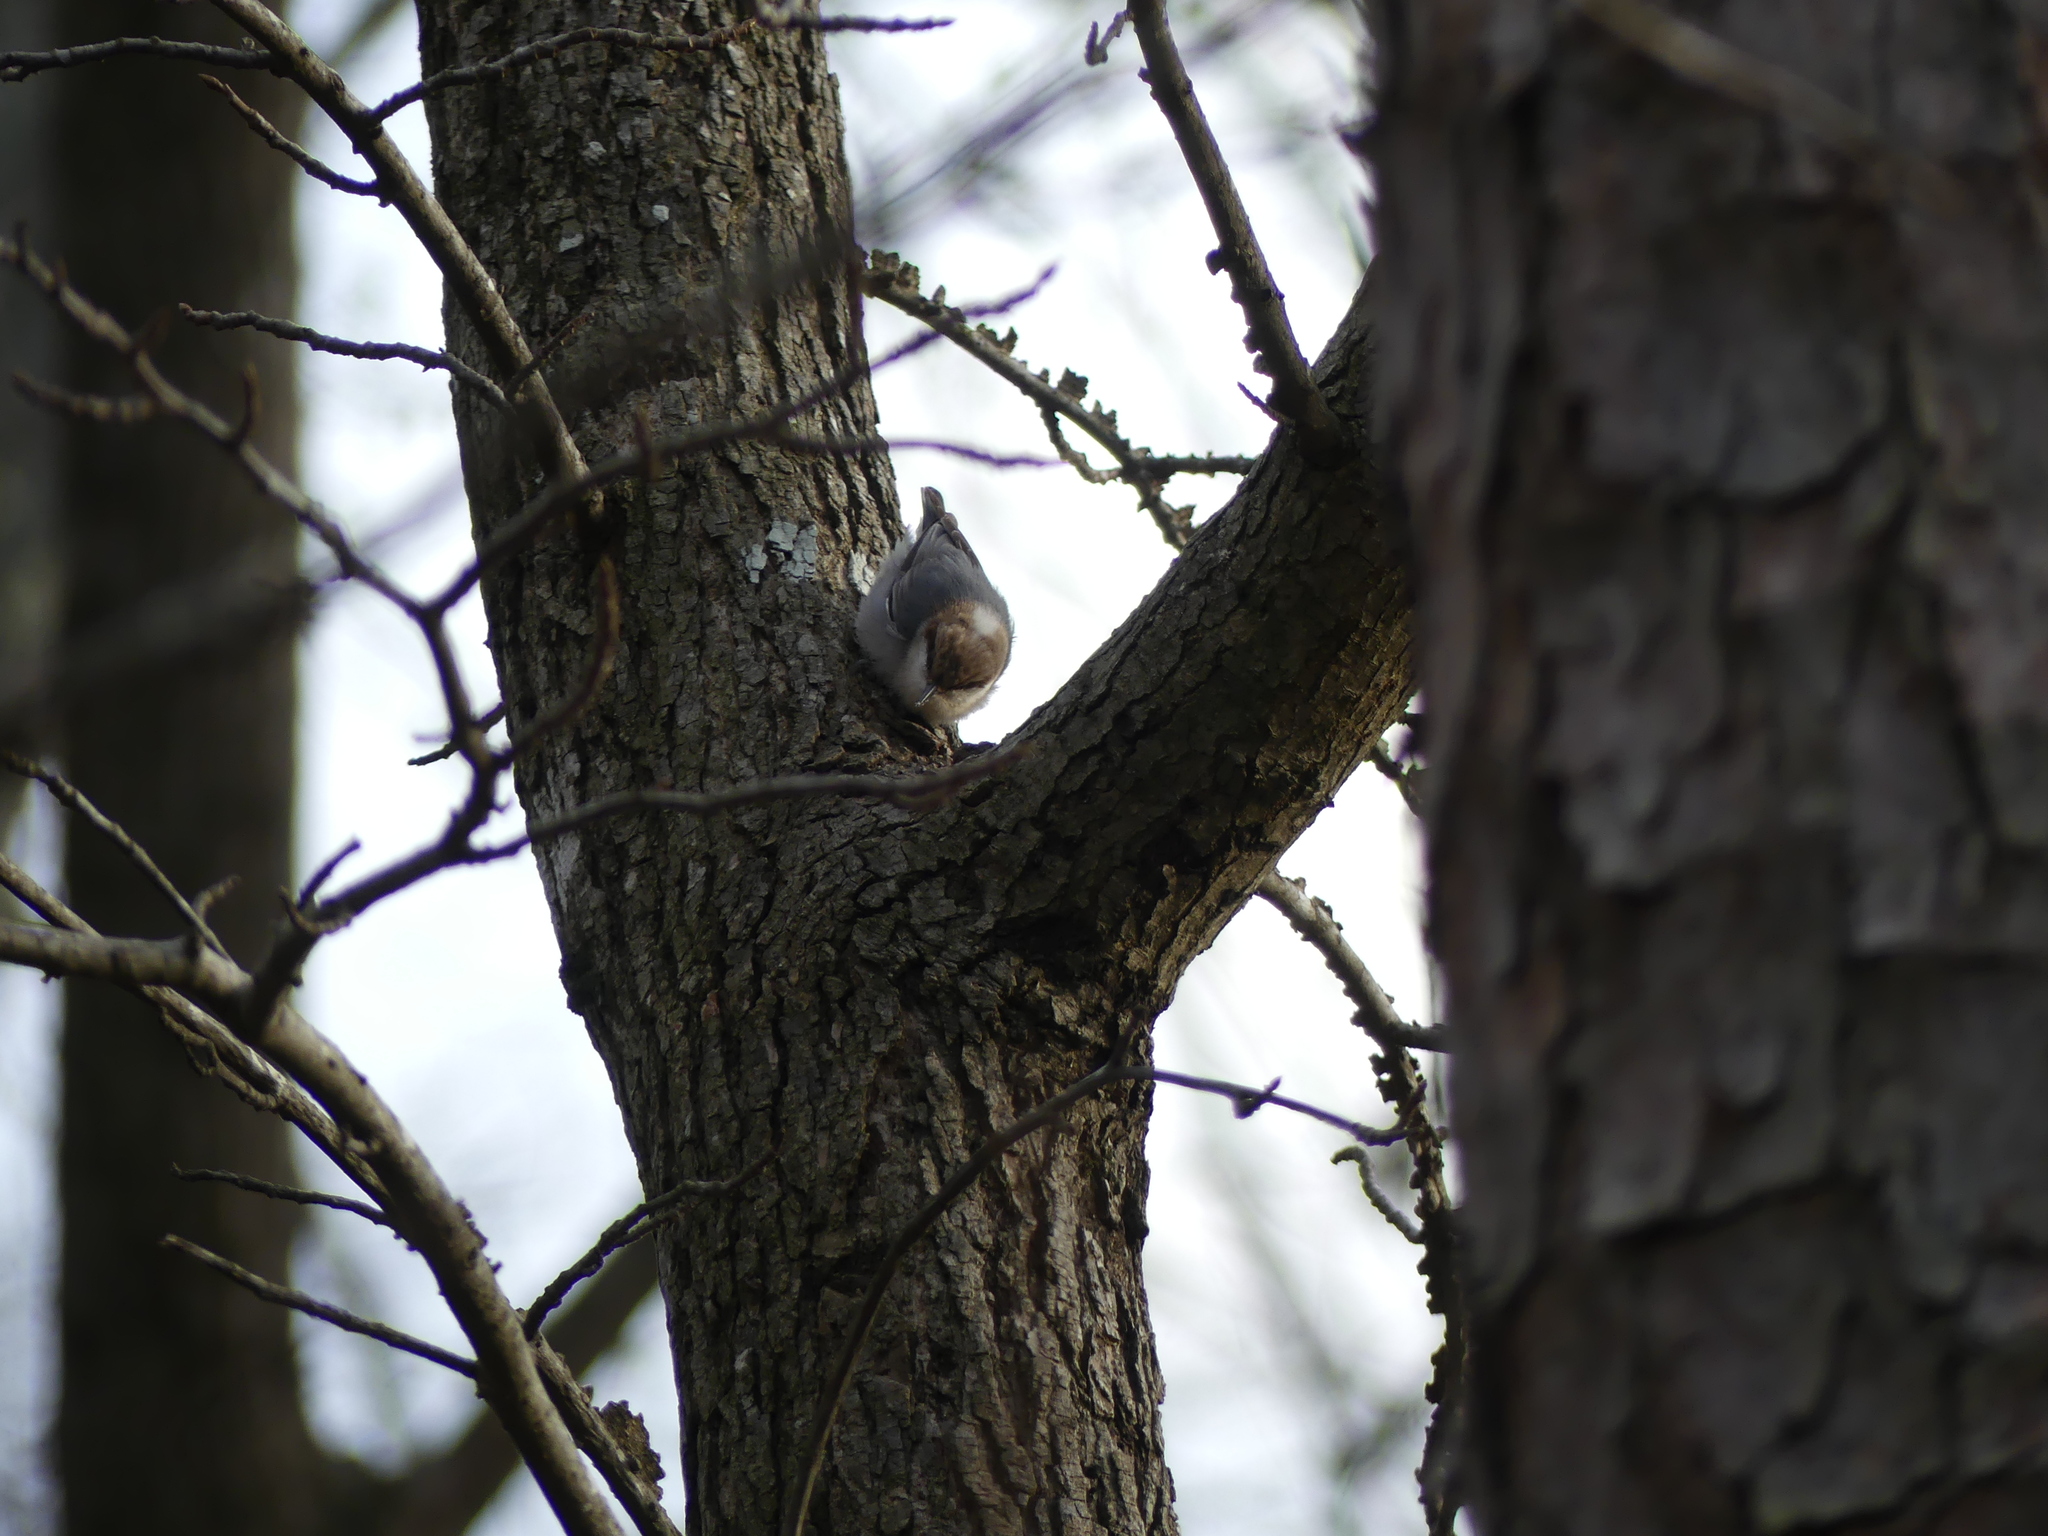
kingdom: Animalia
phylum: Chordata
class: Aves
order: Passeriformes
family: Sittidae
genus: Sitta
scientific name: Sitta pusilla
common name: Brown-headed nuthatch
